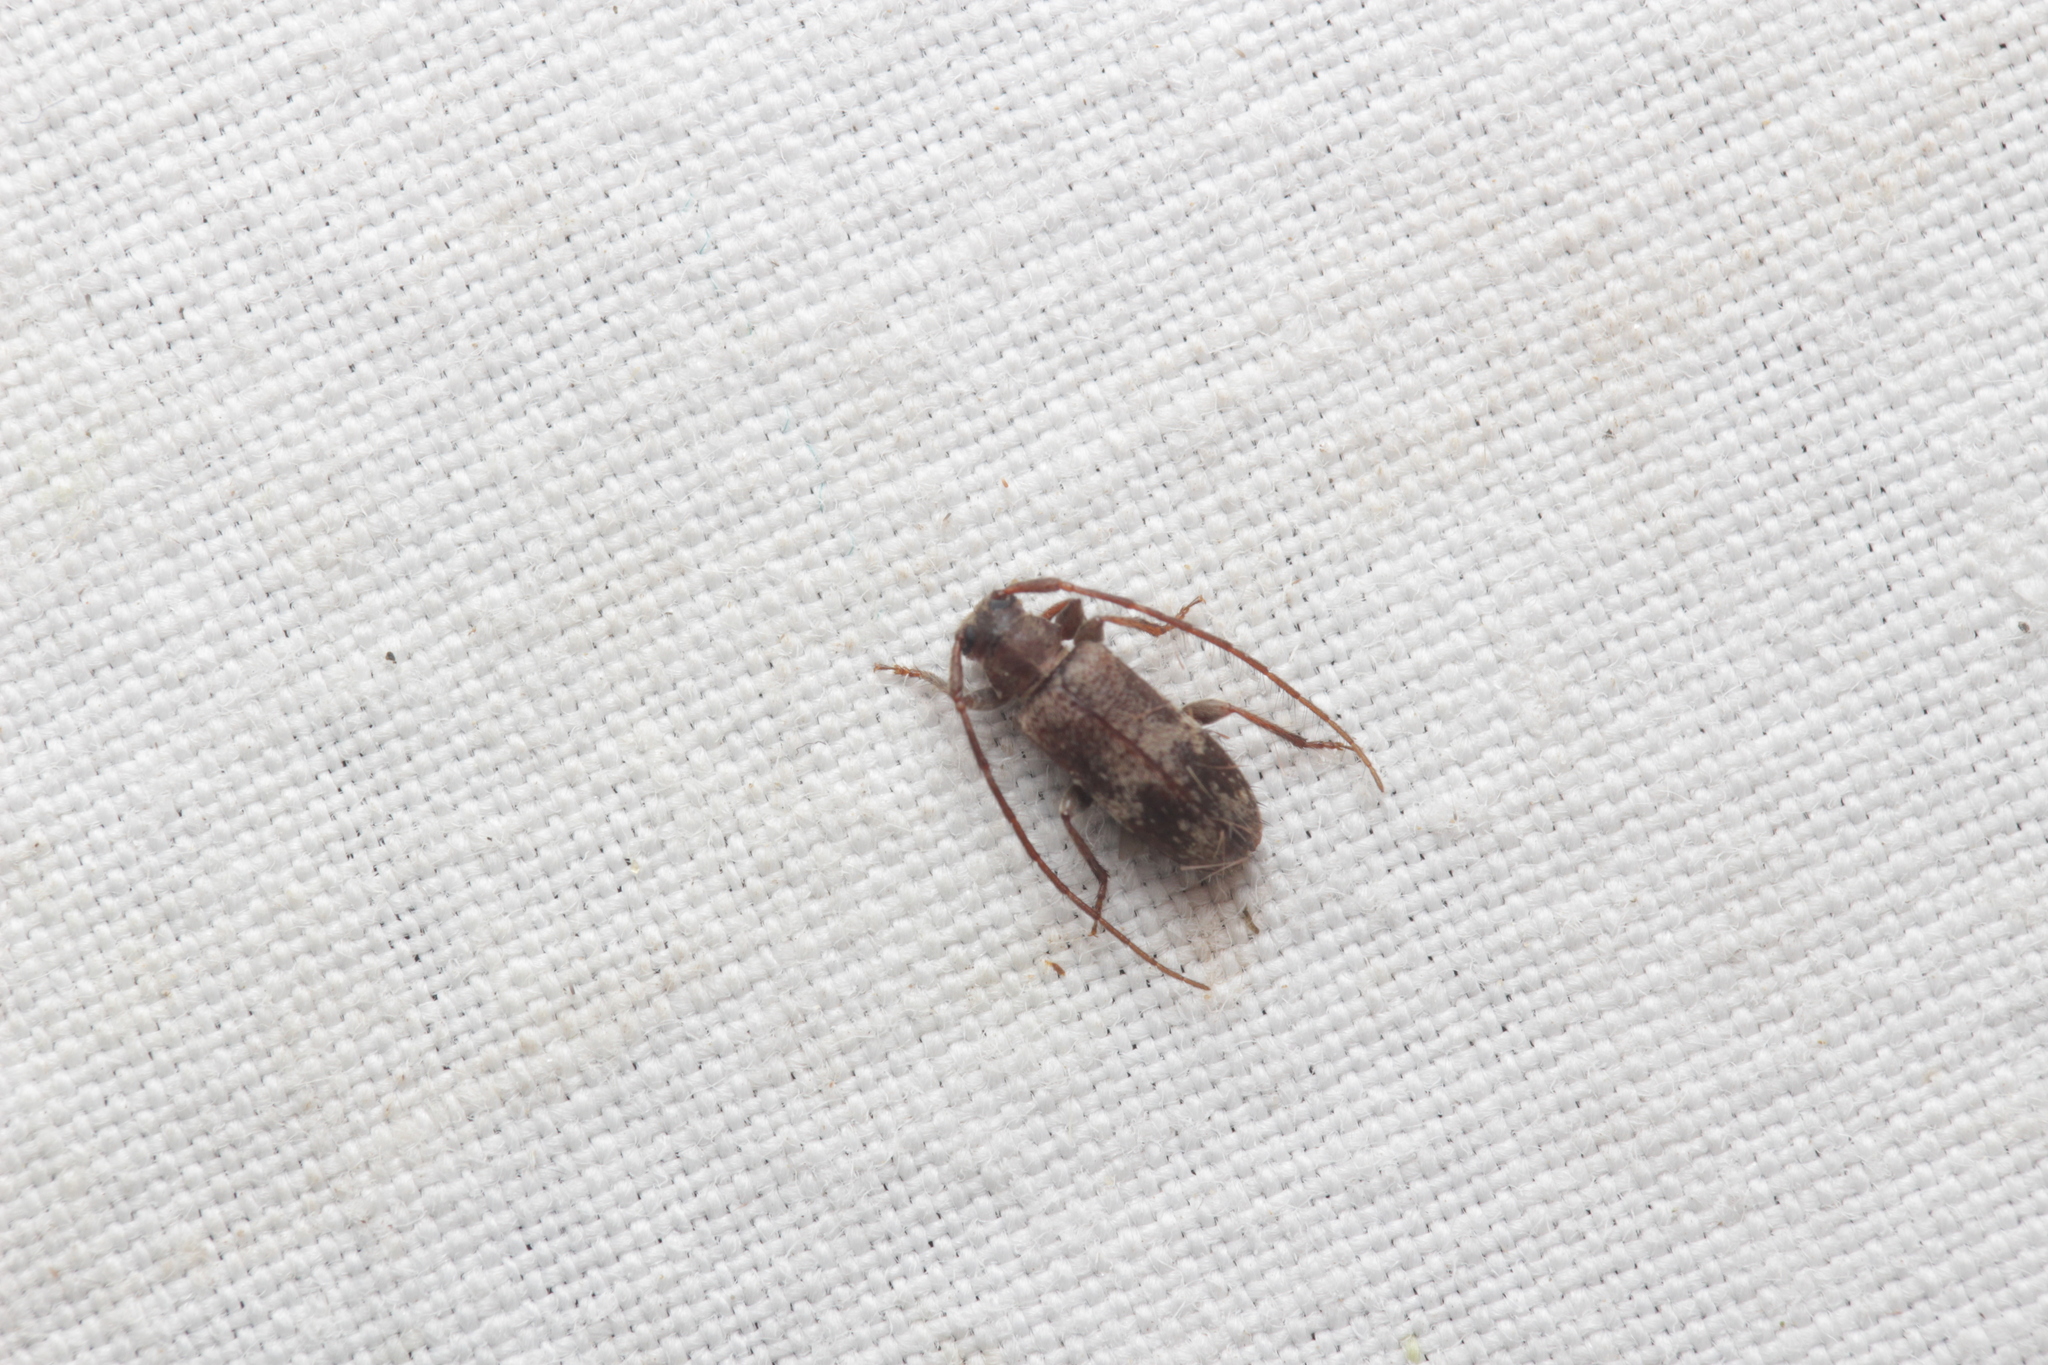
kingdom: Animalia
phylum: Arthropoda
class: Insecta
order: Coleoptera
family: Cerambycidae
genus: Exocentrus
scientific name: Exocentrus adspersus
